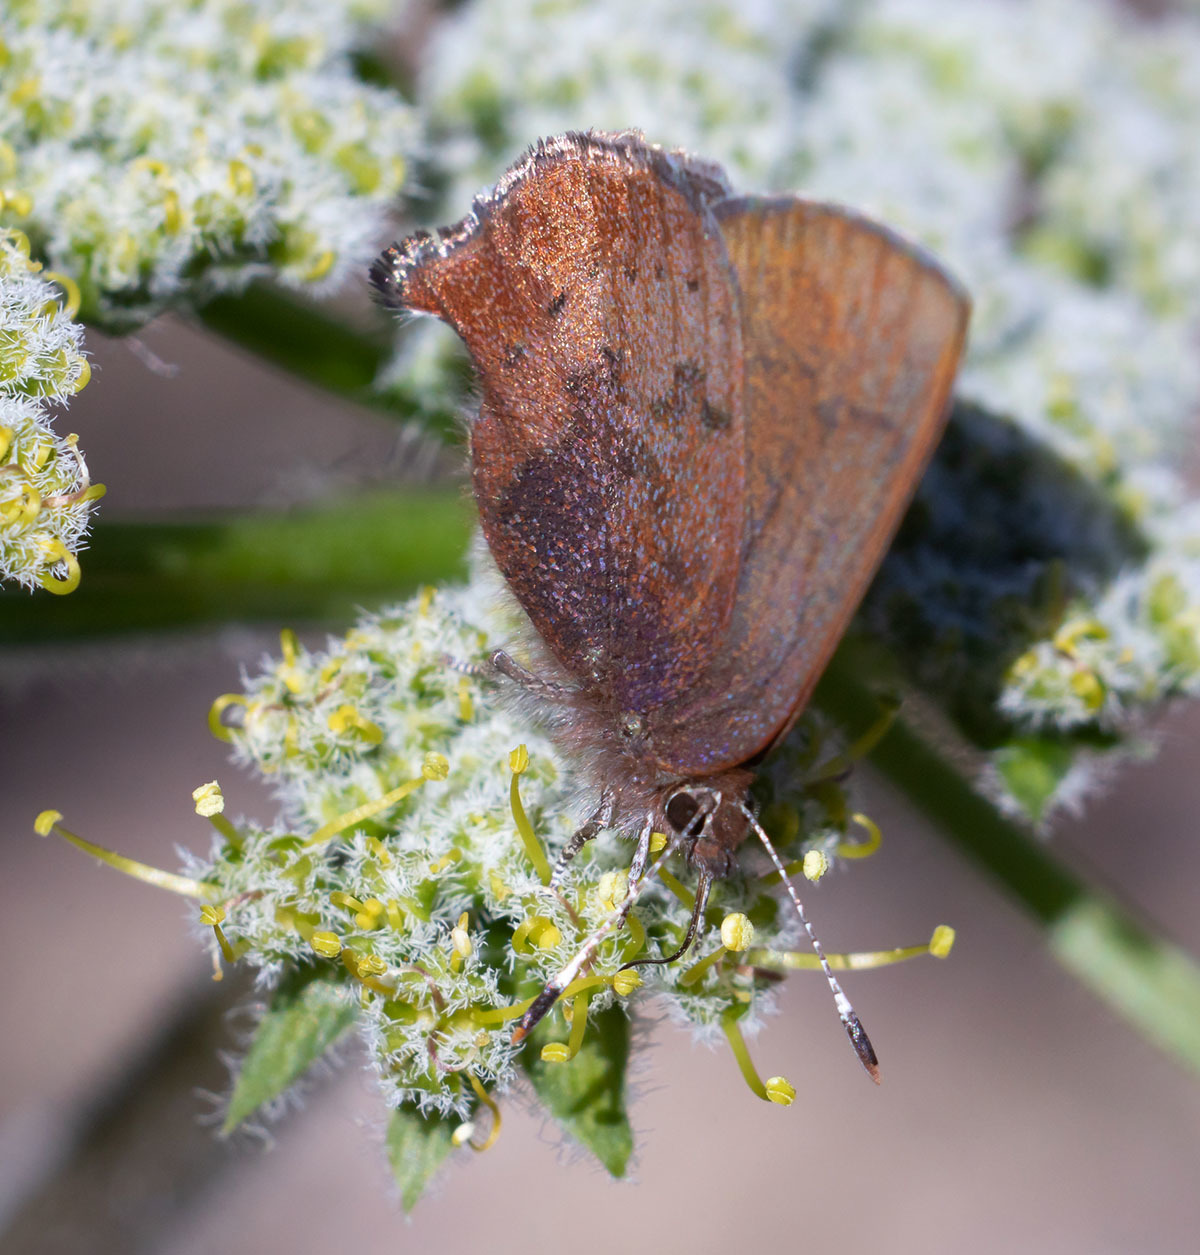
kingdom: Animalia
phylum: Arthropoda
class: Insecta
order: Lepidoptera
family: Lycaenidae
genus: Incisalia
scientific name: Incisalia irioides
